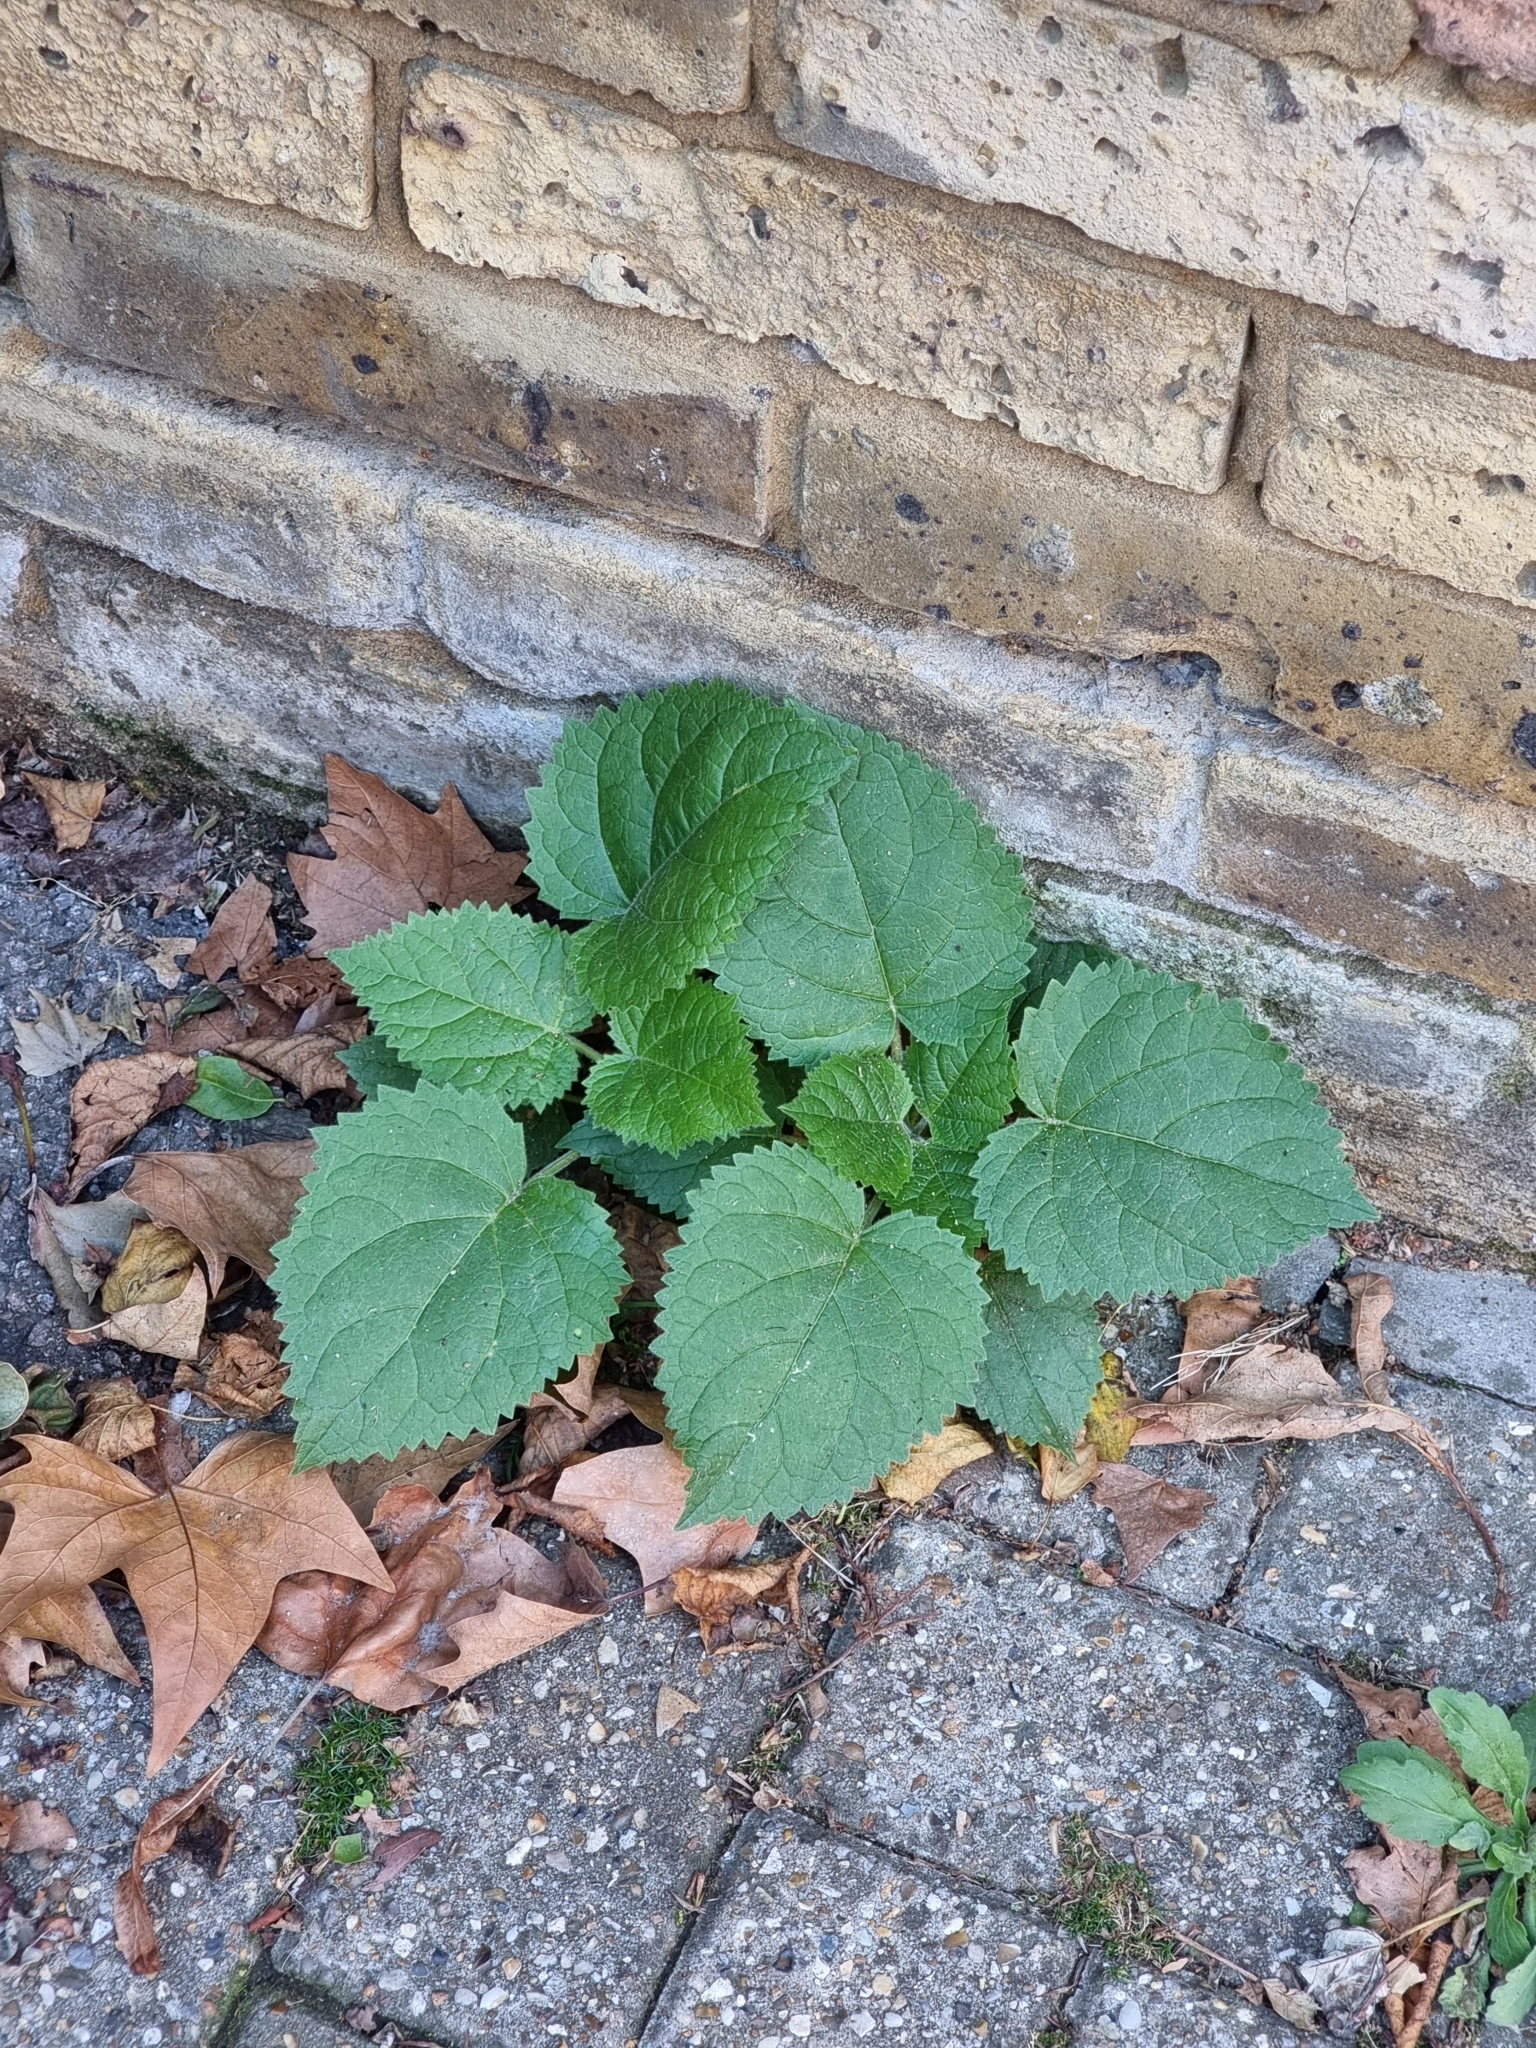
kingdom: Plantae
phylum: Tracheophyta
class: Magnoliopsida
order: Lamiales
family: Paulowniaceae
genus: Paulownia
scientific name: Paulownia tomentosa
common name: Foxglove-tree
